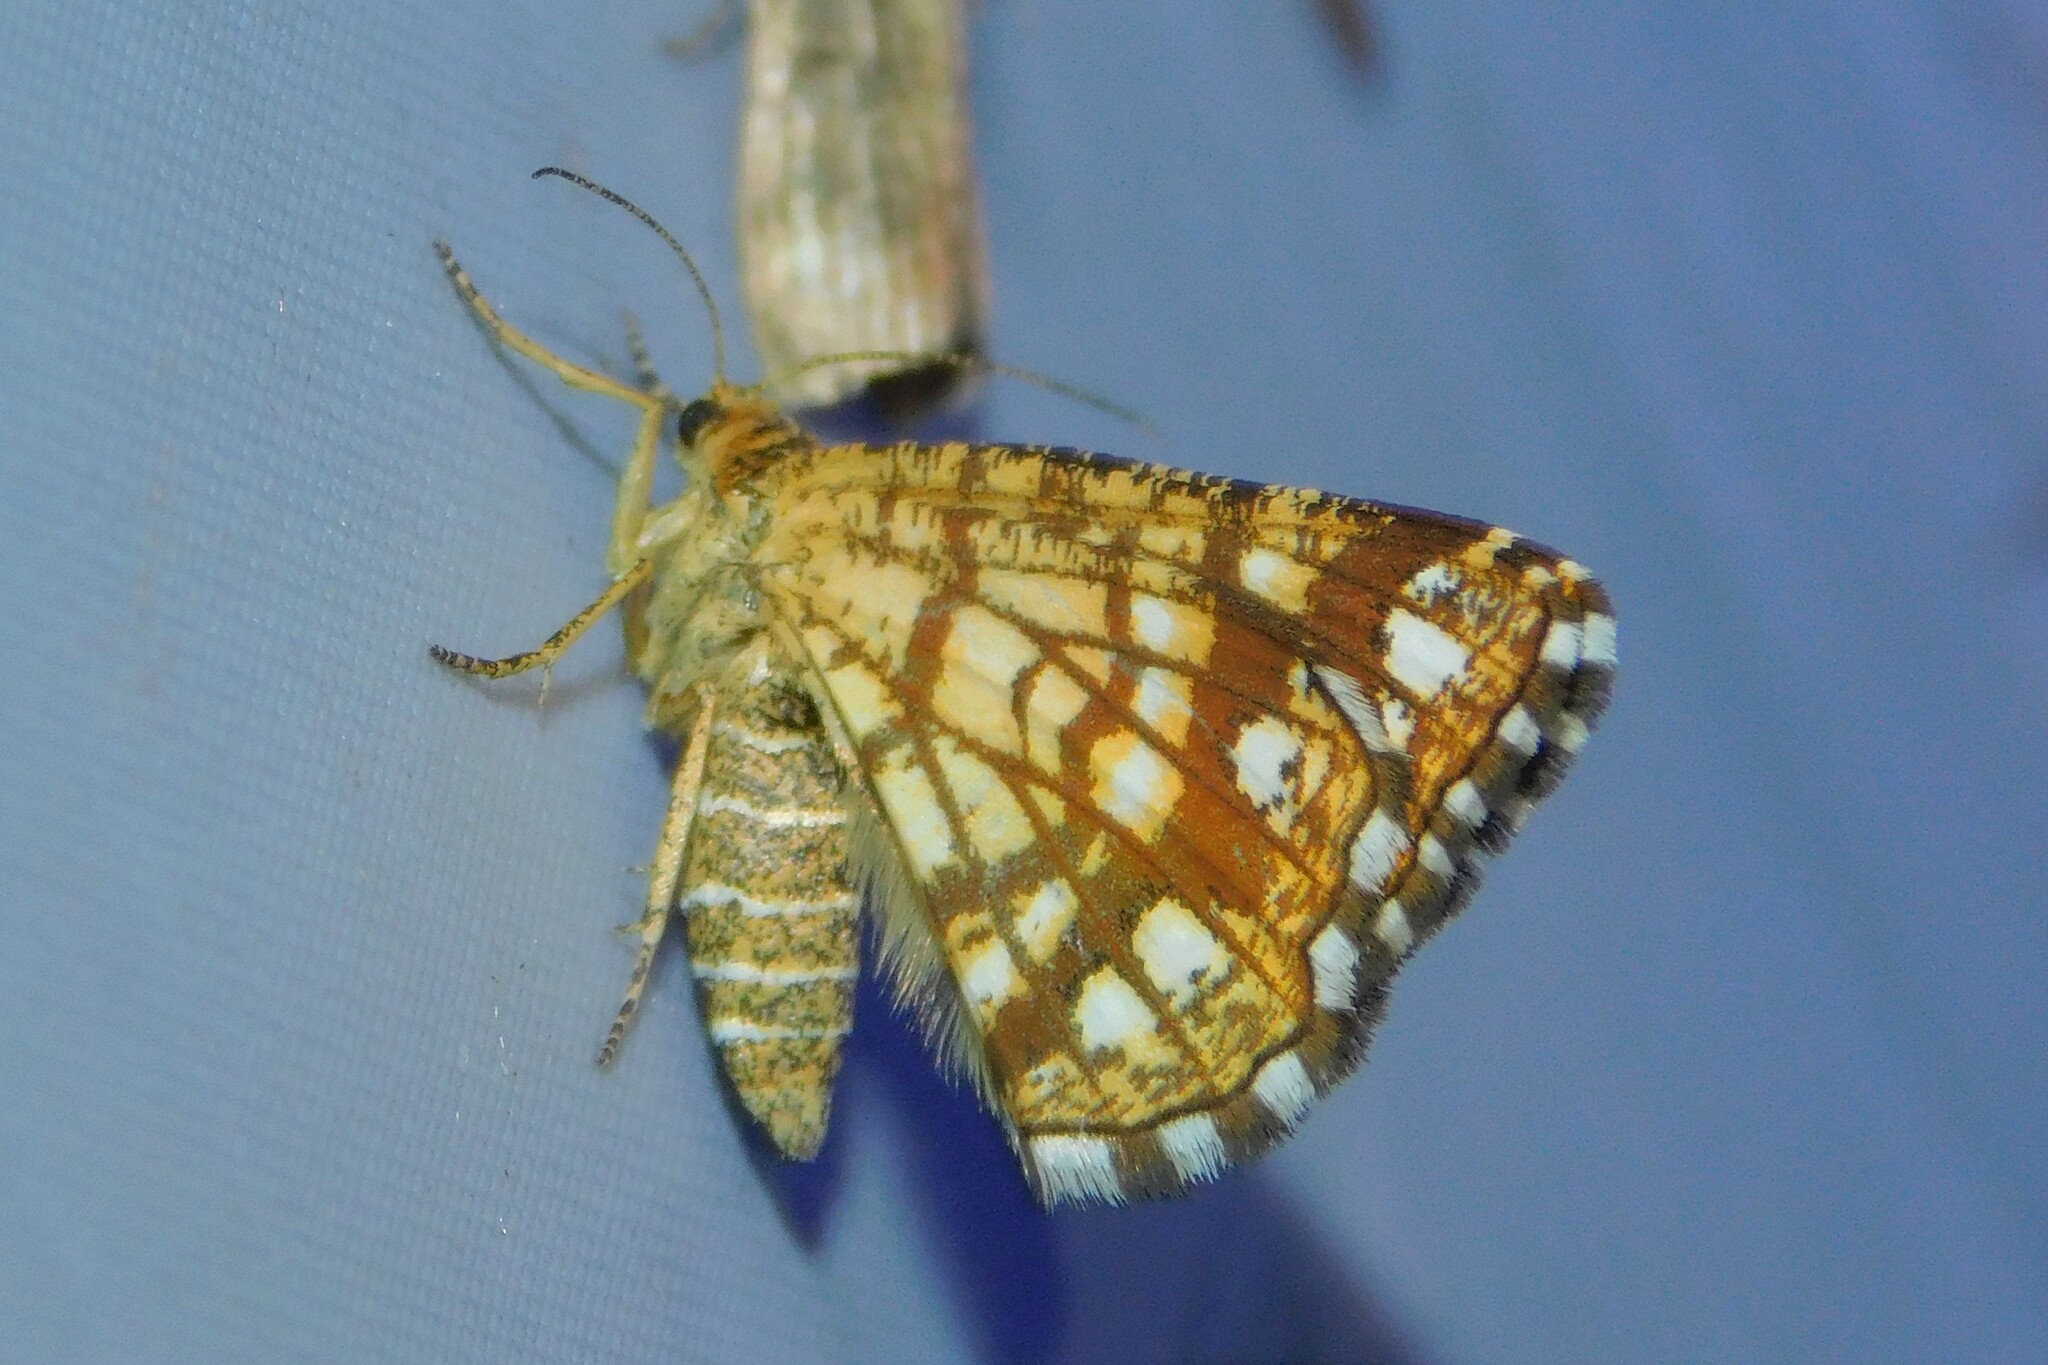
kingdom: Animalia
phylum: Arthropoda
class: Insecta
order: Lepidoptera
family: Geometridae
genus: Chiasmia
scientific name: Chiasmia clathrata
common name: Latticed heath
